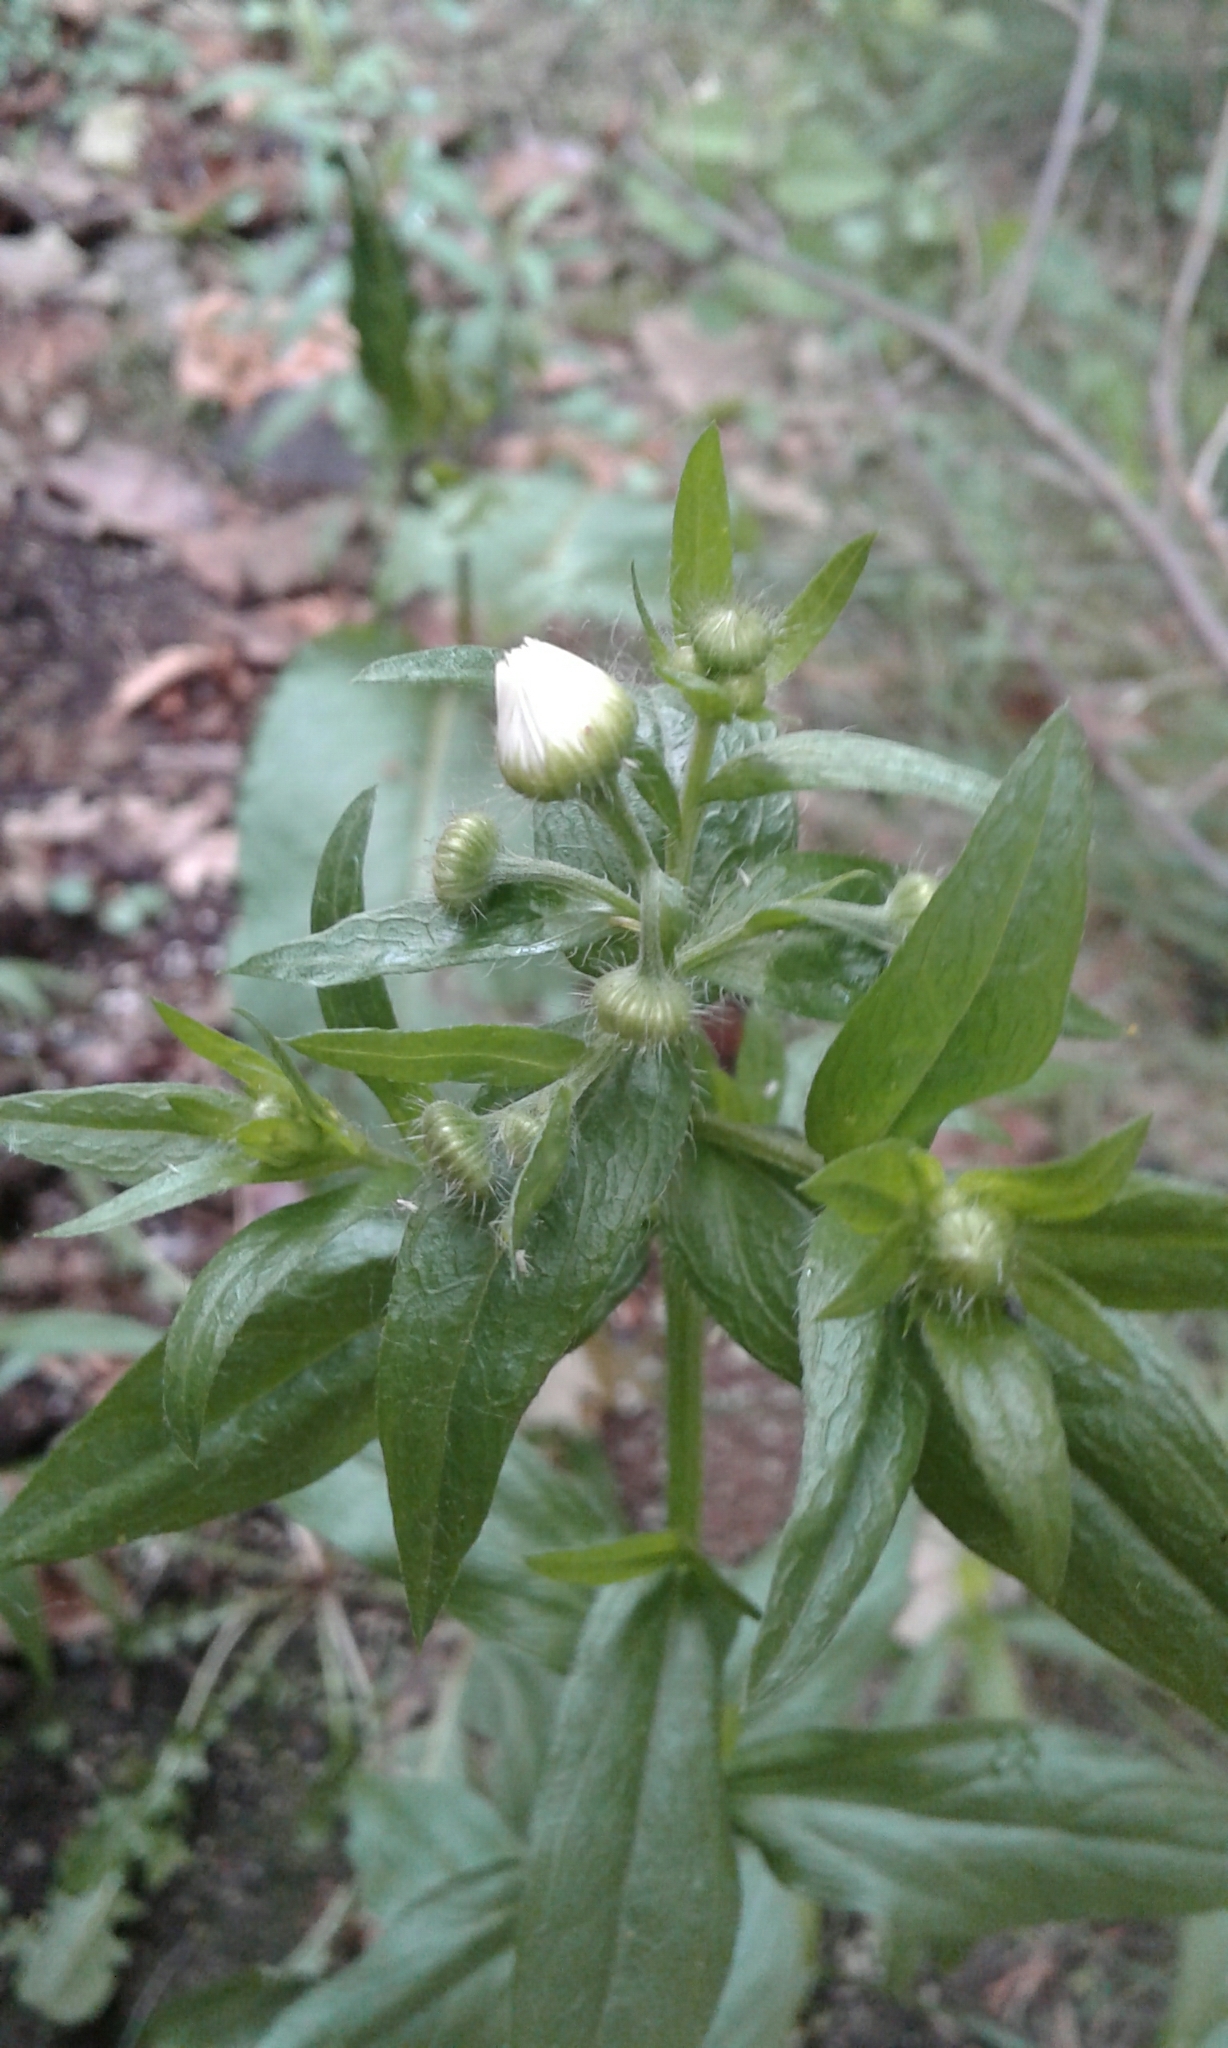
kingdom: Plantae
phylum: Tracheophyta
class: Magnoliopsida
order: Asterales
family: Asteraceae
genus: Erigeron
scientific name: Erigeron strigosus
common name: Common eastern fleabane
